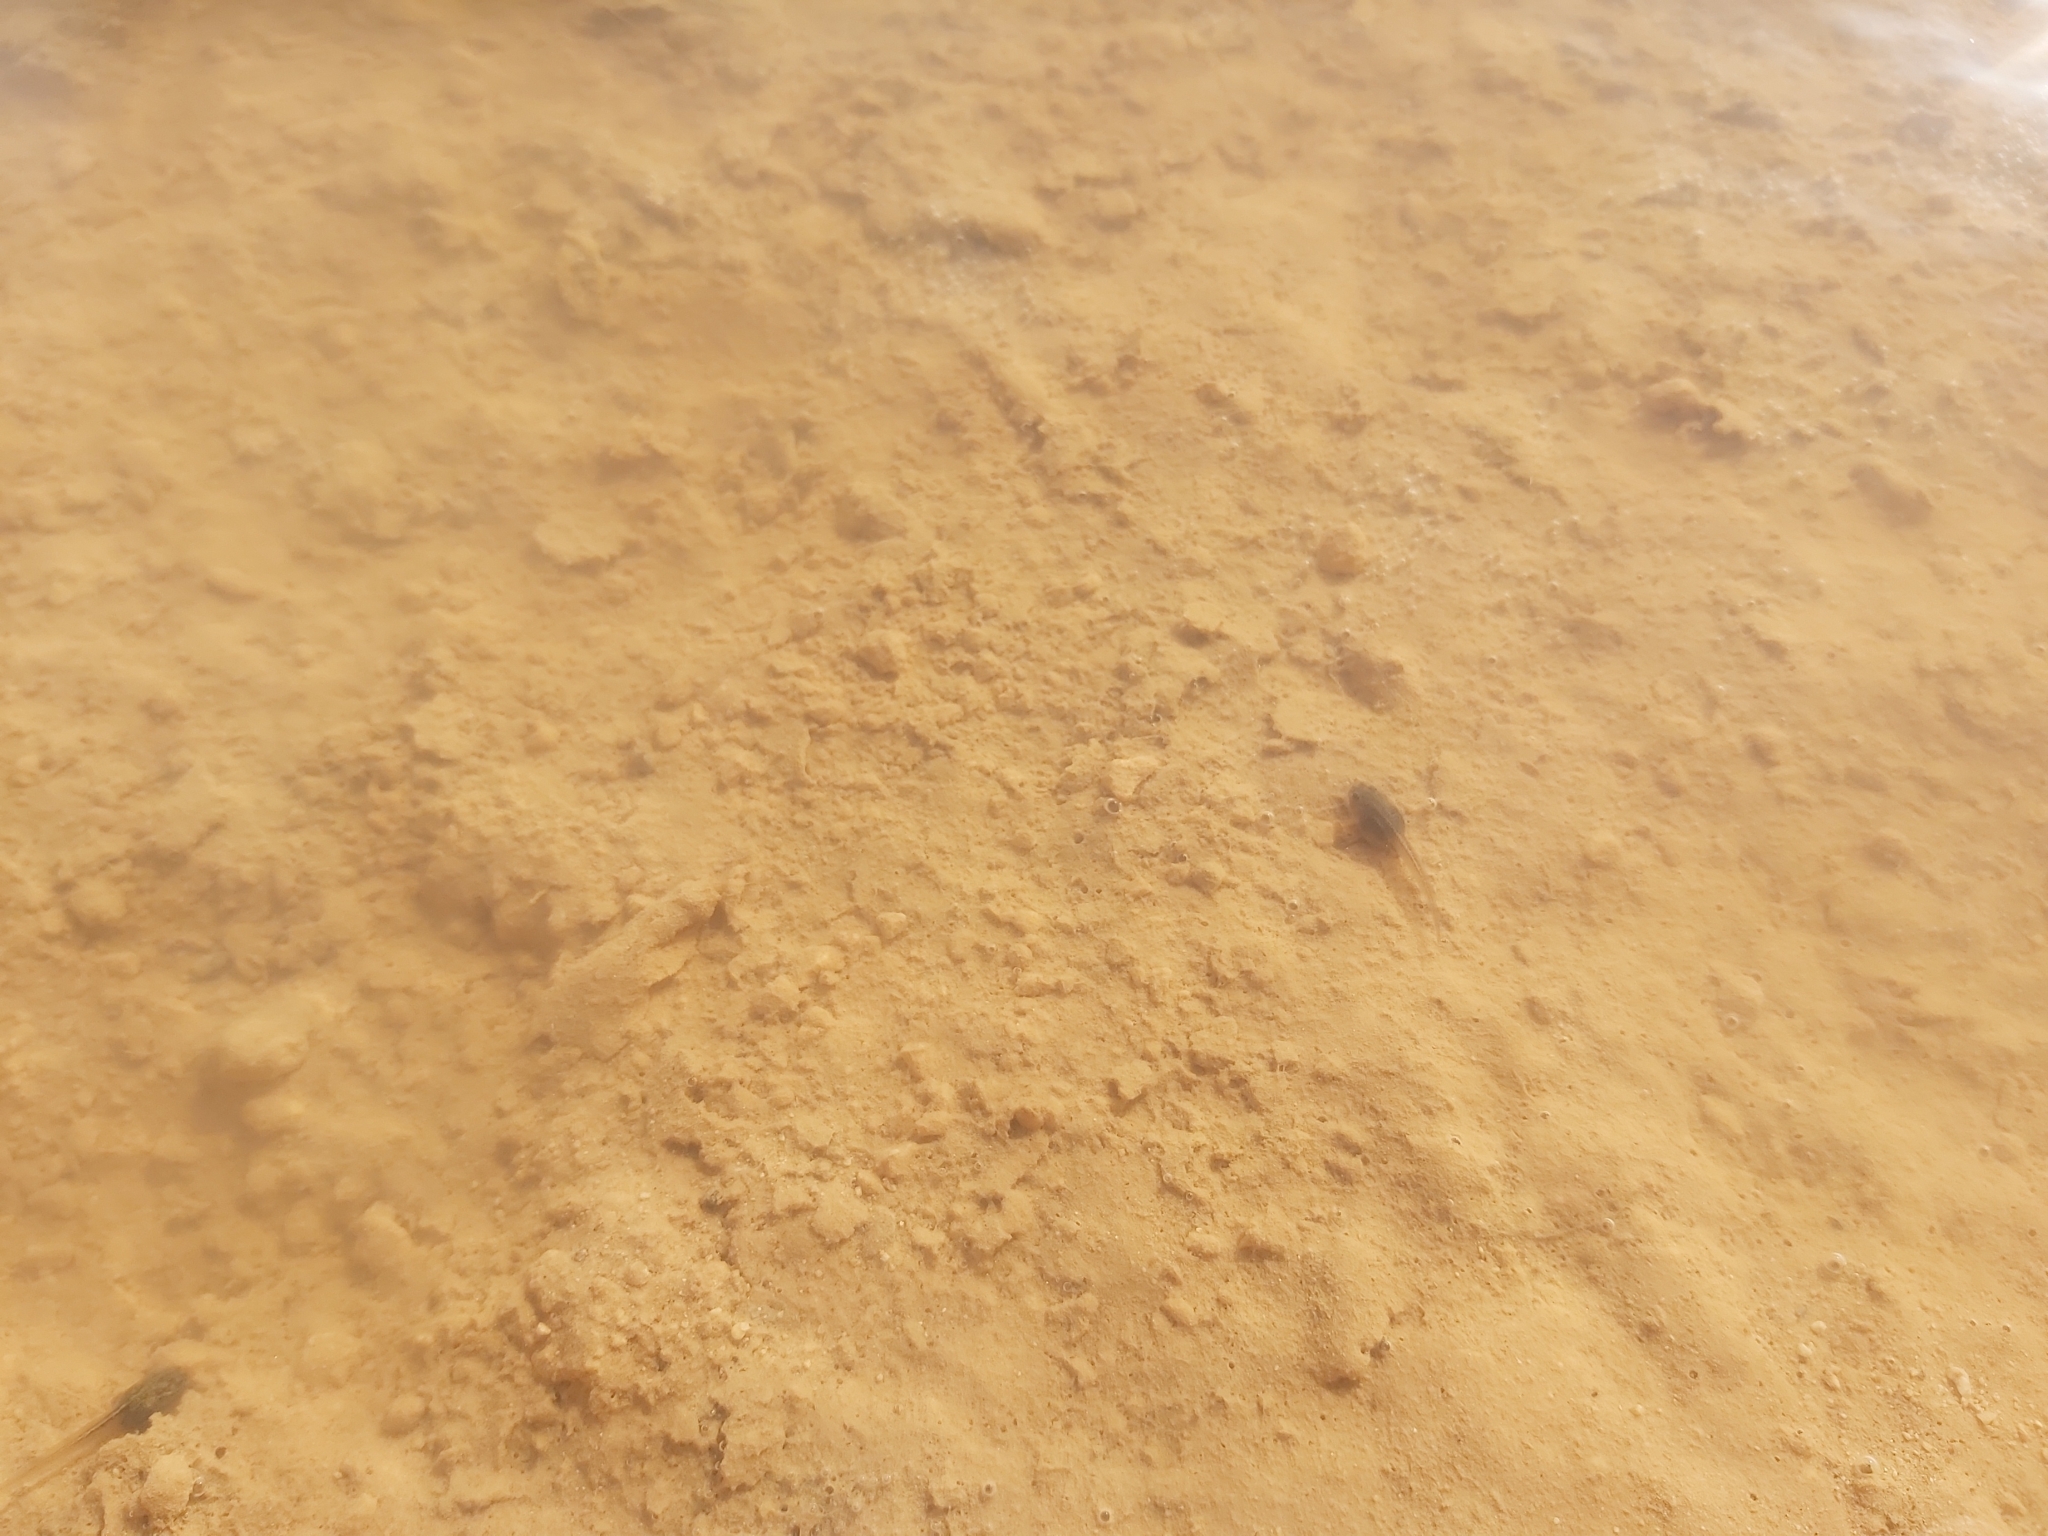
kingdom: Animalia
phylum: Chordata
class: Amphibia
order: Anura
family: Alytidae
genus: Discoglossus
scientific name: Discoglossus pictus
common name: Painted frog
